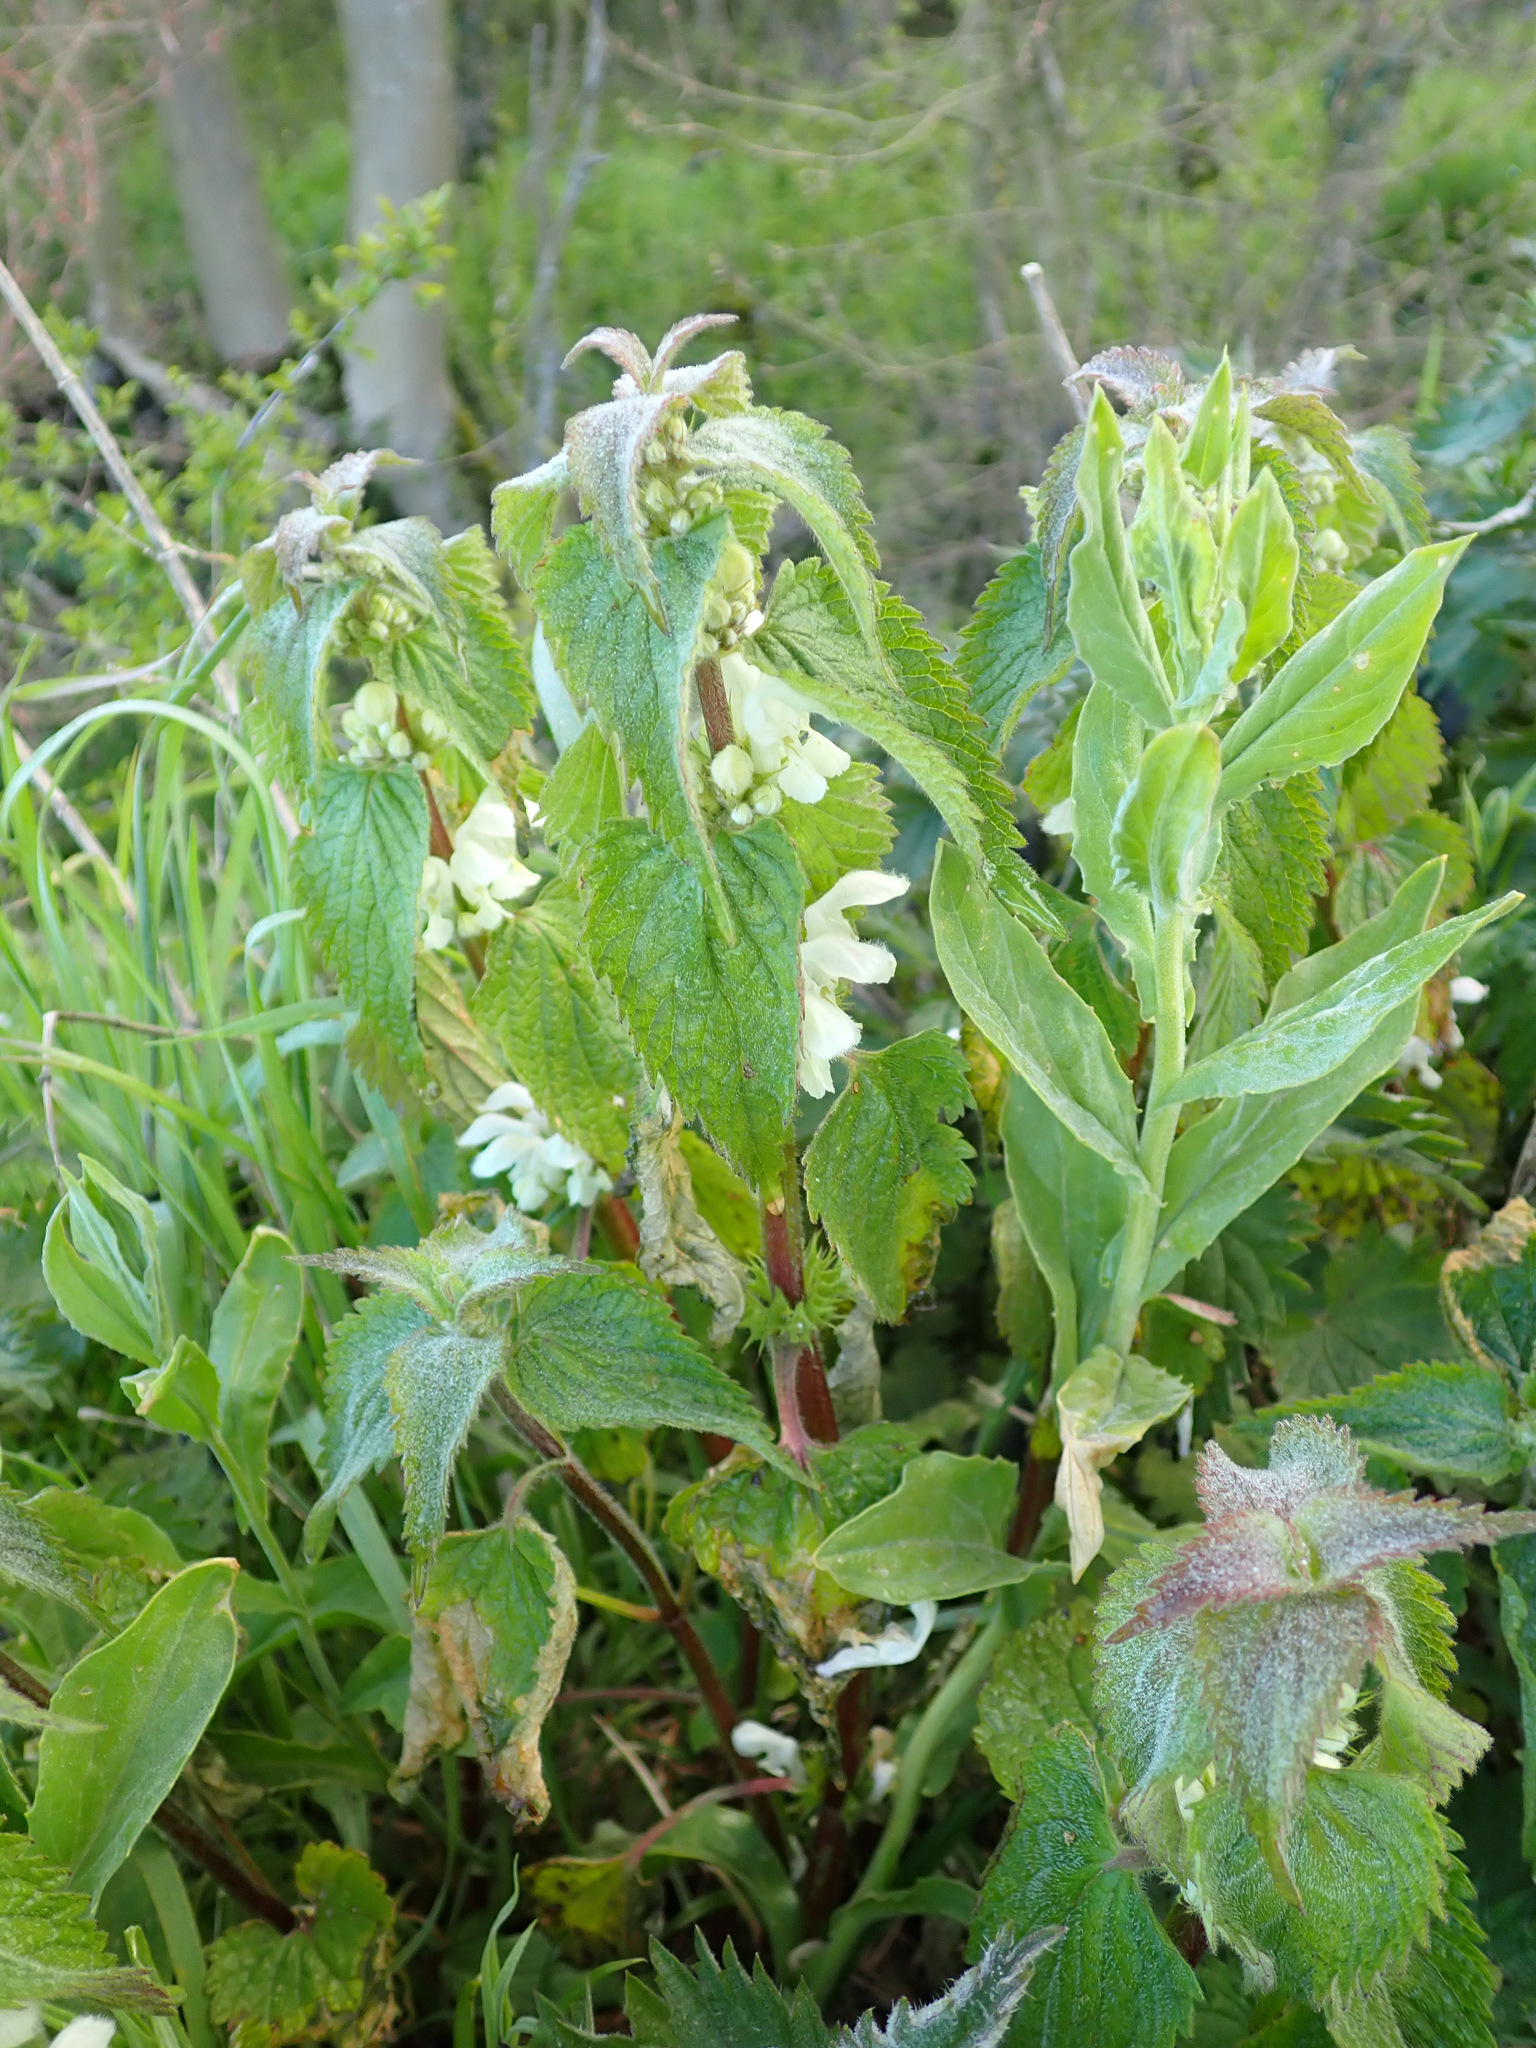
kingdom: Plantae
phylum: Tracheophyta
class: Magnoliopsida
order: Lamiales
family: Lamiaceae
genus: Lamium
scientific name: Lamium album
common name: White dead-nettle
